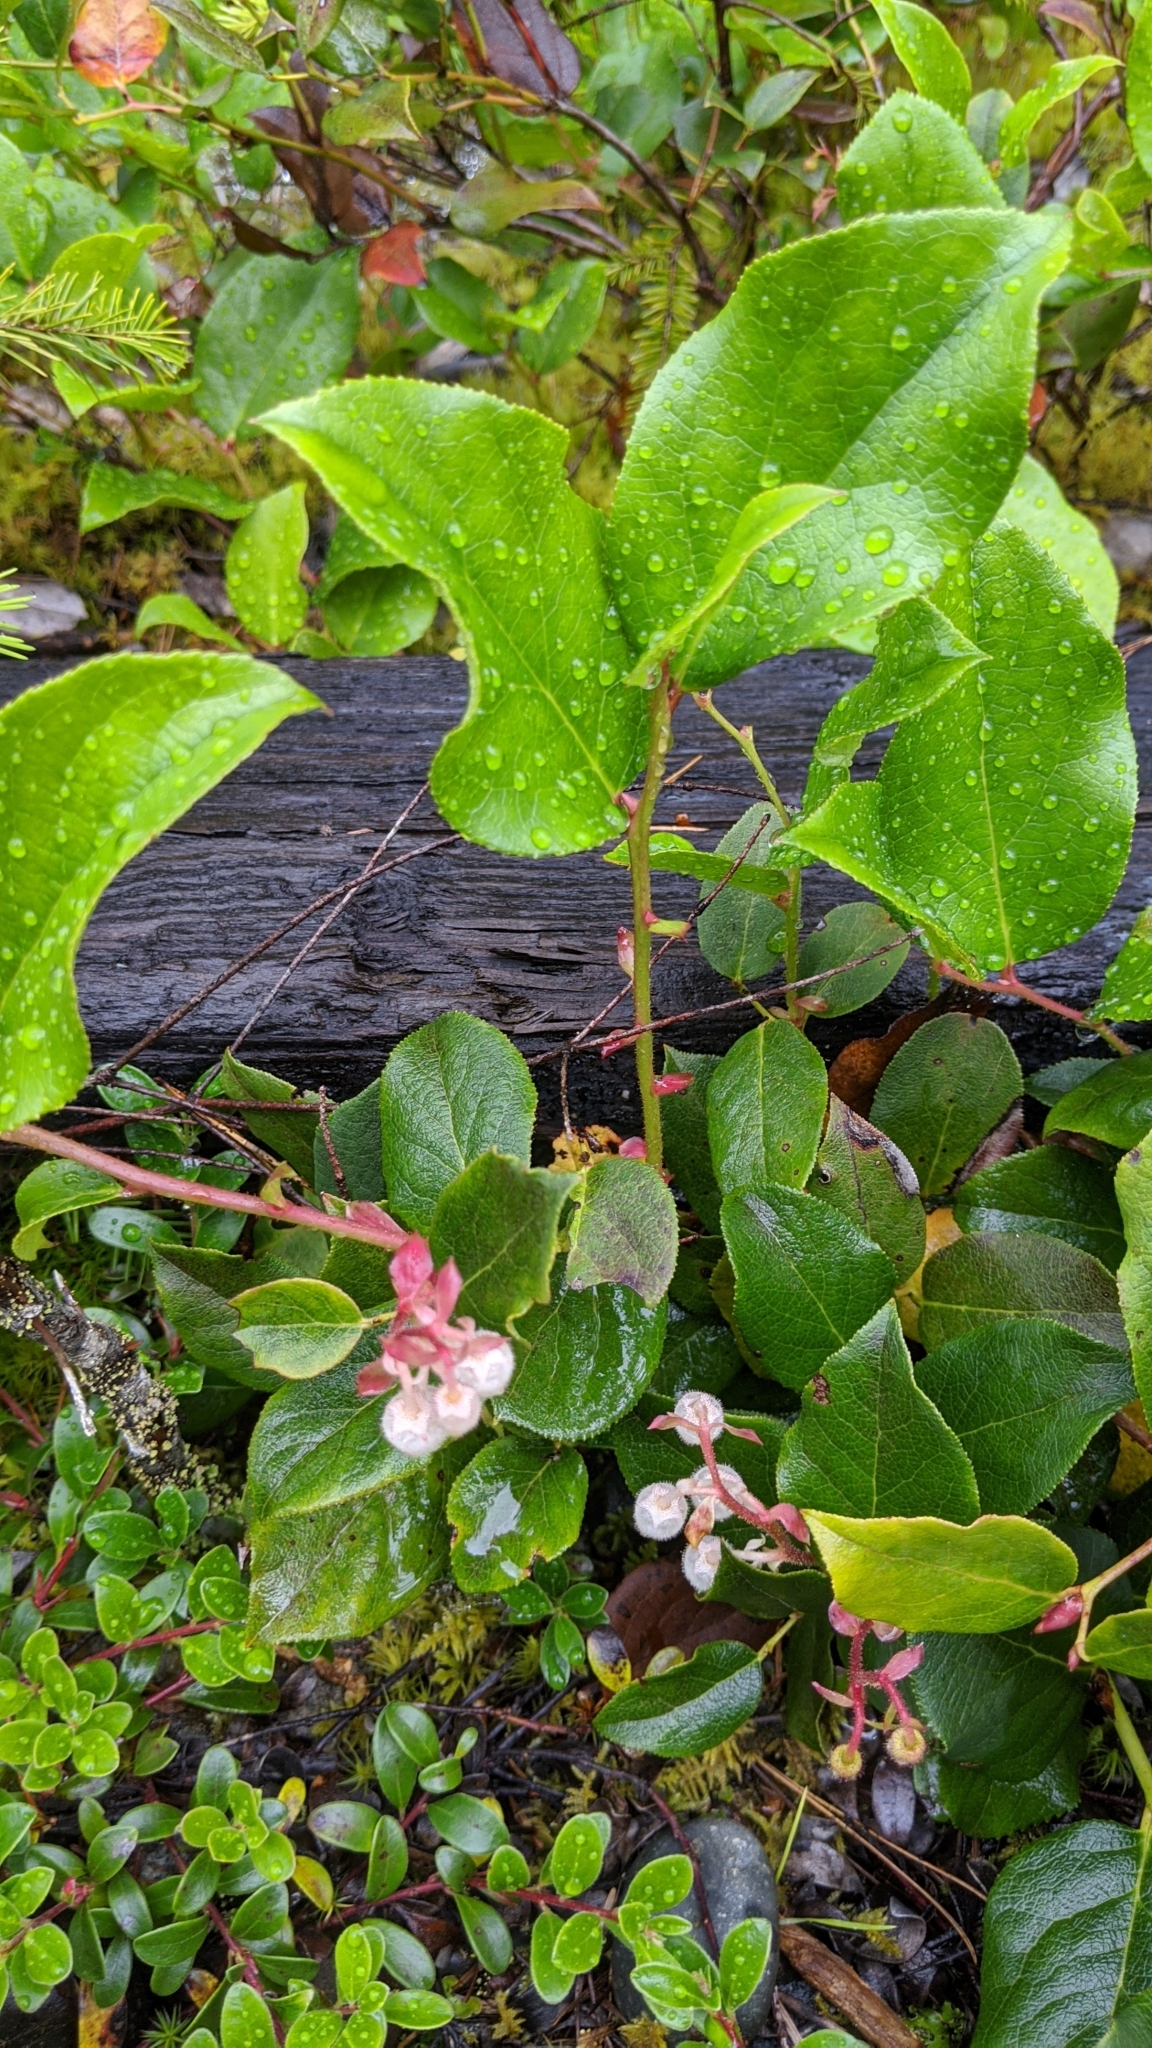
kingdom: Plantae
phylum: Tracheophyta
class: Magnoliopsida
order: Ericales
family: Ericaceae
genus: Gaultheria
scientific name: Gaultheria shallon
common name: Shallon
